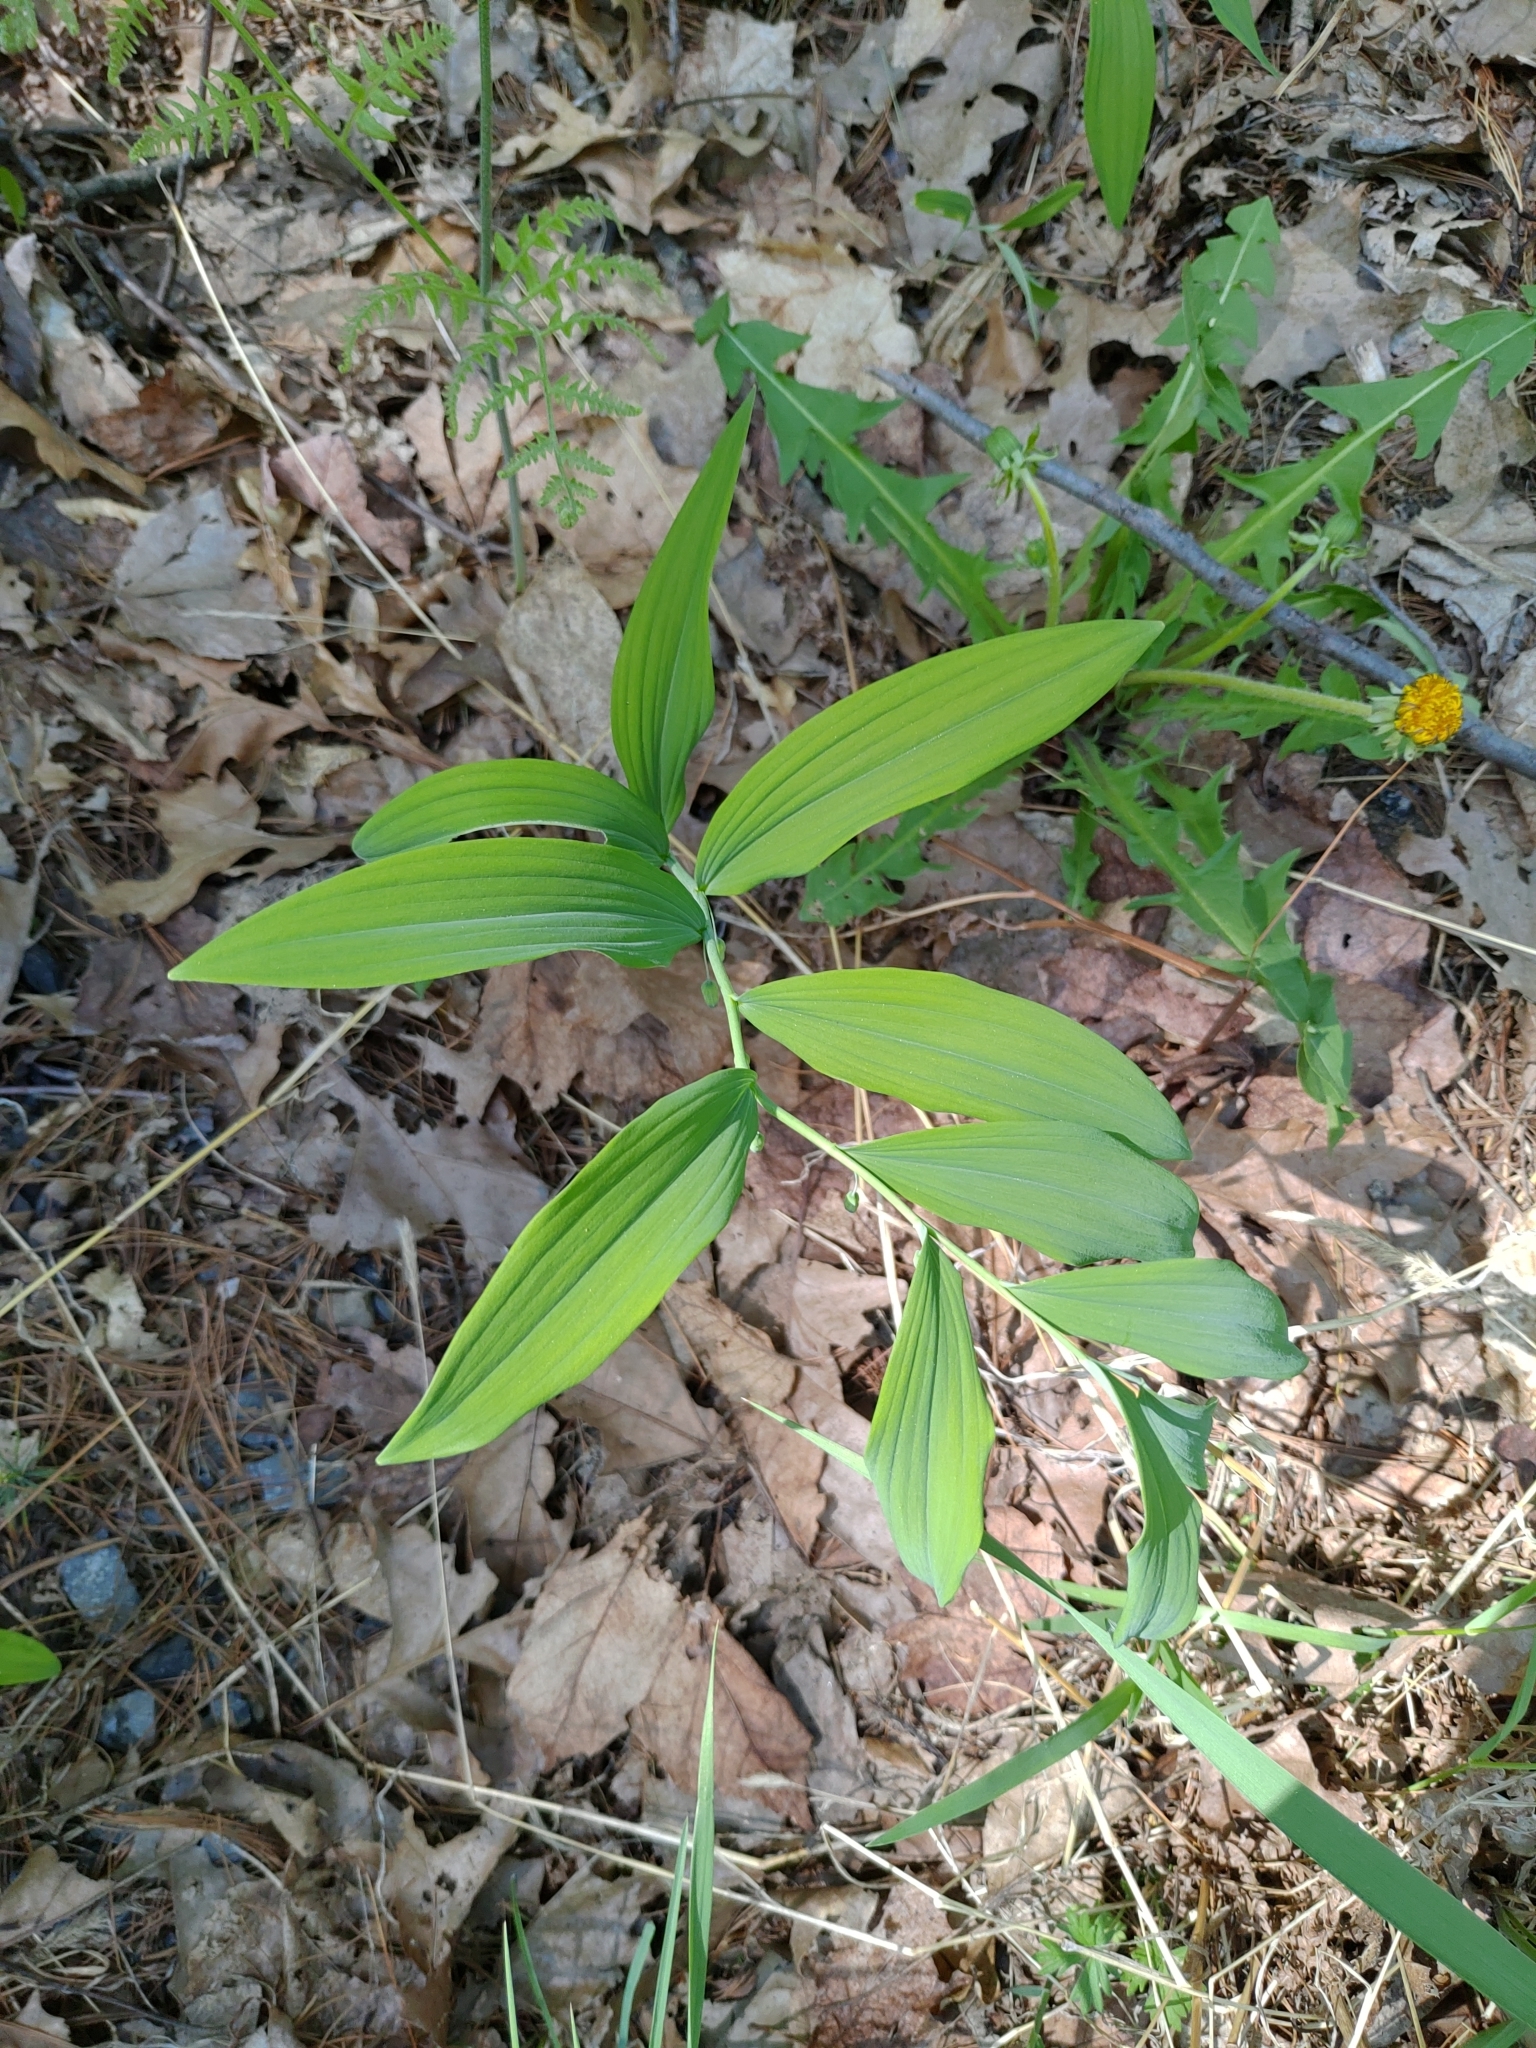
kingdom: Plantae
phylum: Tracheophyta
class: Liliopsida
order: Asparagales
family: Asparagaceae
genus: Polygonatum
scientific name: Polygonatum pubescens
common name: Downy solomon's seal
